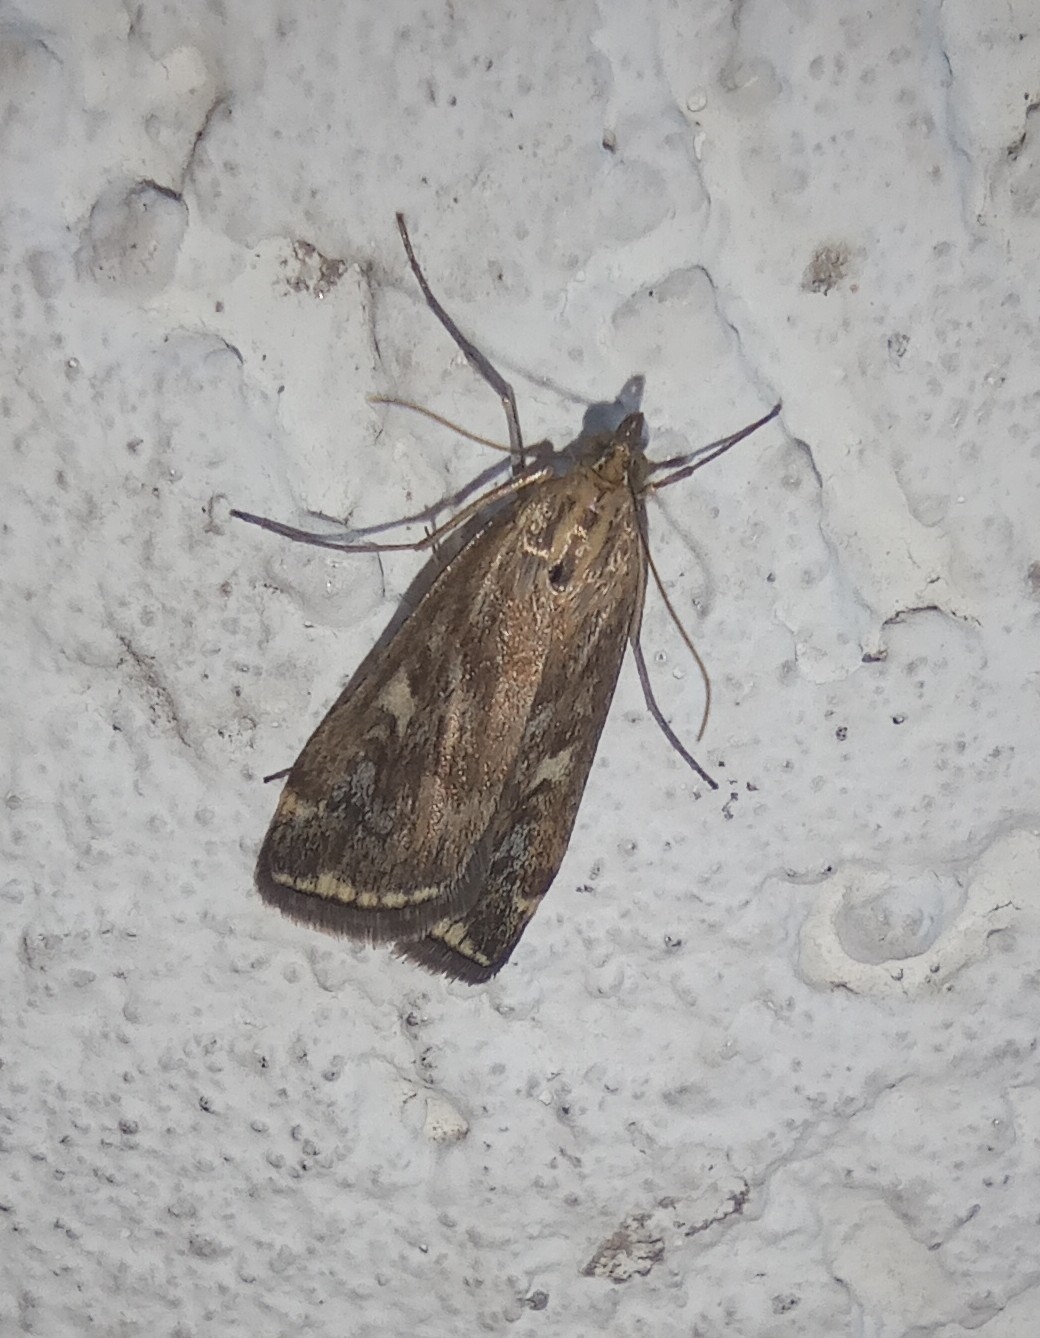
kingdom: Animalia
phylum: Arthropoda
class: Insecta
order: Lepidoptera
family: Crambidae
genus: Loxostege
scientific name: Loxostege sticticalis
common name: Crambid moth
